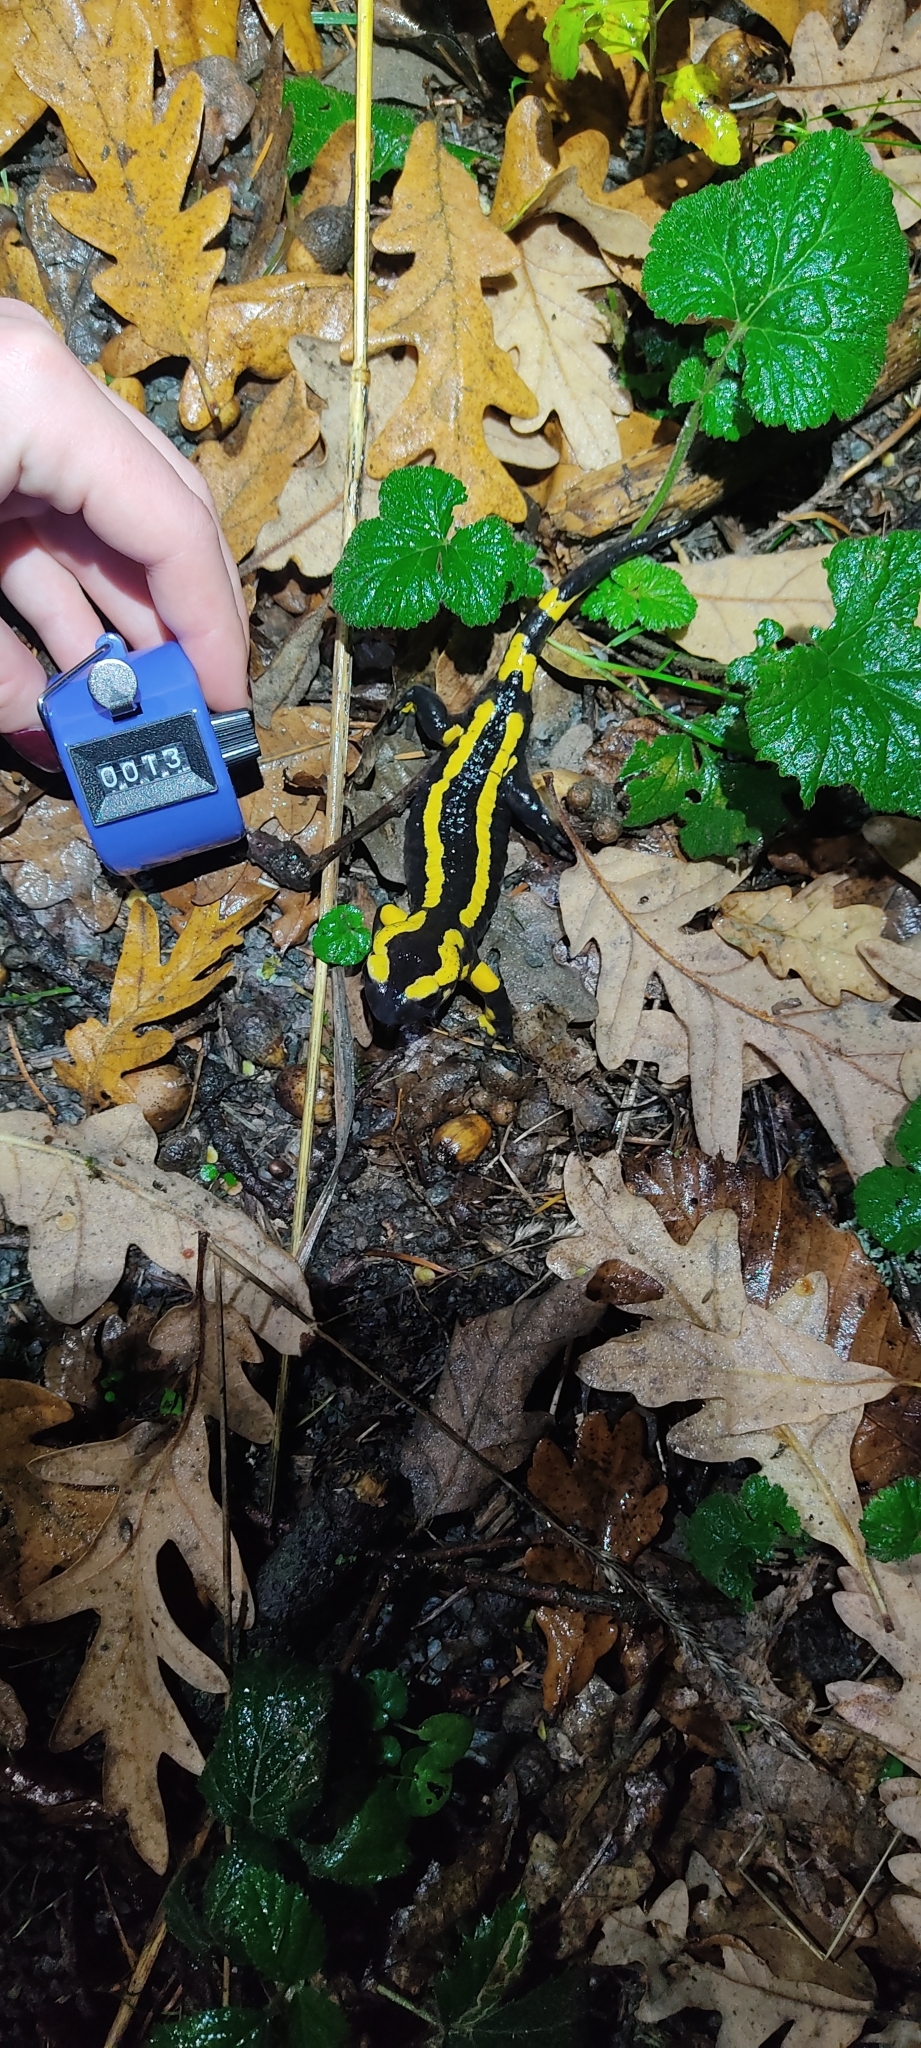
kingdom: Animalia
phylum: Chordata
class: Amphibia
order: Caudata
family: Salamandridae
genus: Salamandra
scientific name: Salamandra salamandra
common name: Fire salamander
